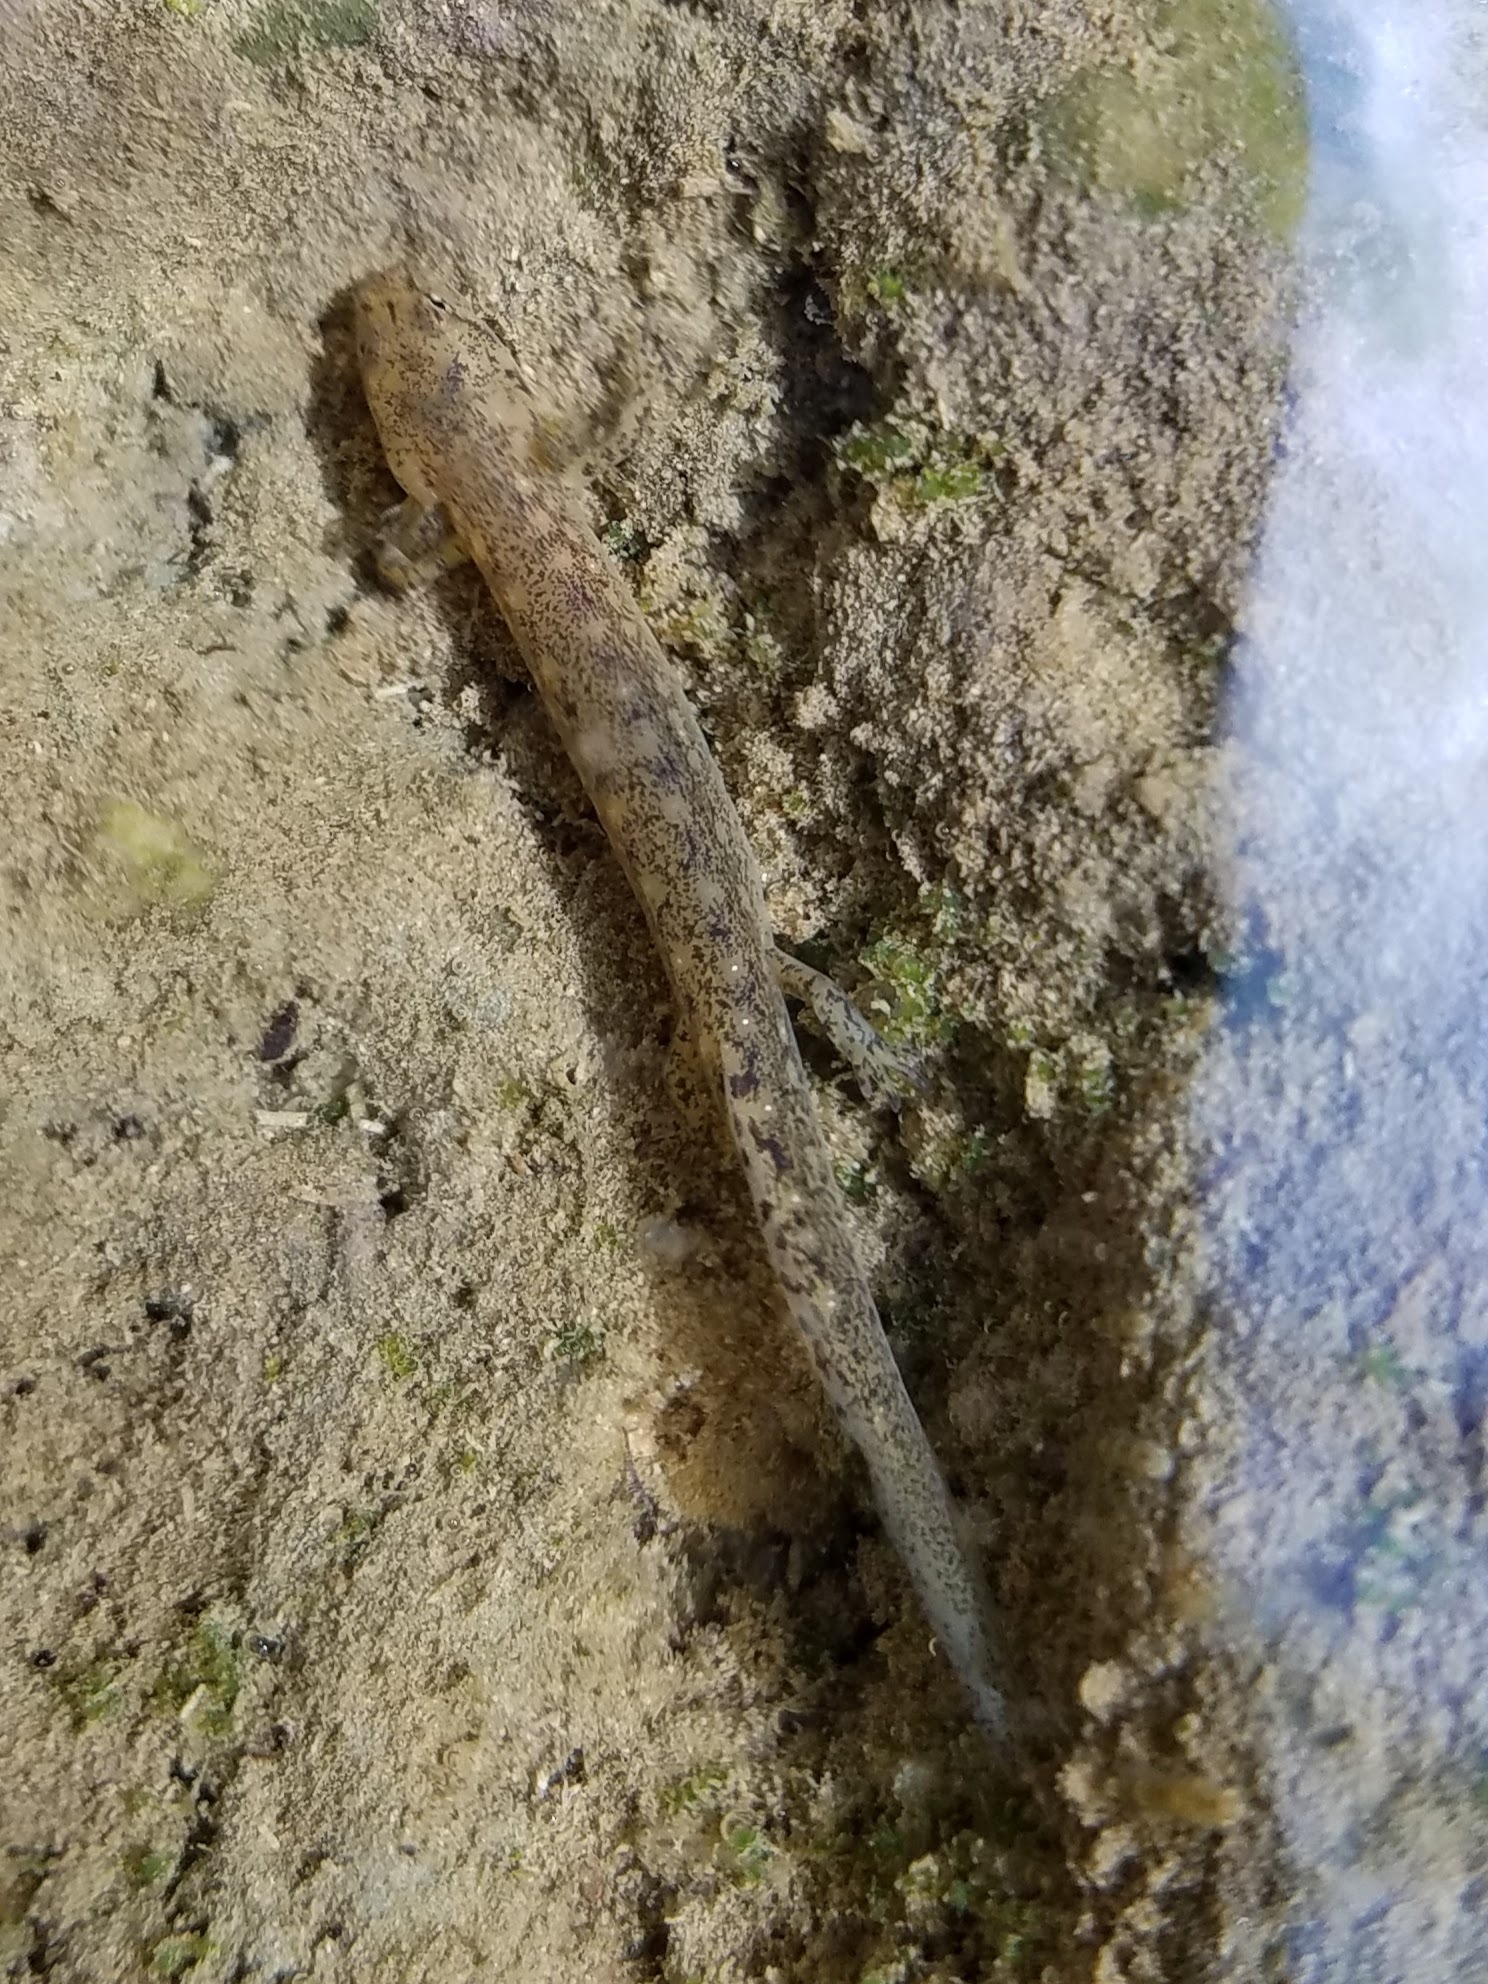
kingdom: Animalia
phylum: Chordata
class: Amphibia
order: Caudata
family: Plethodontidae
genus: Eurycea
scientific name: Eurycea
